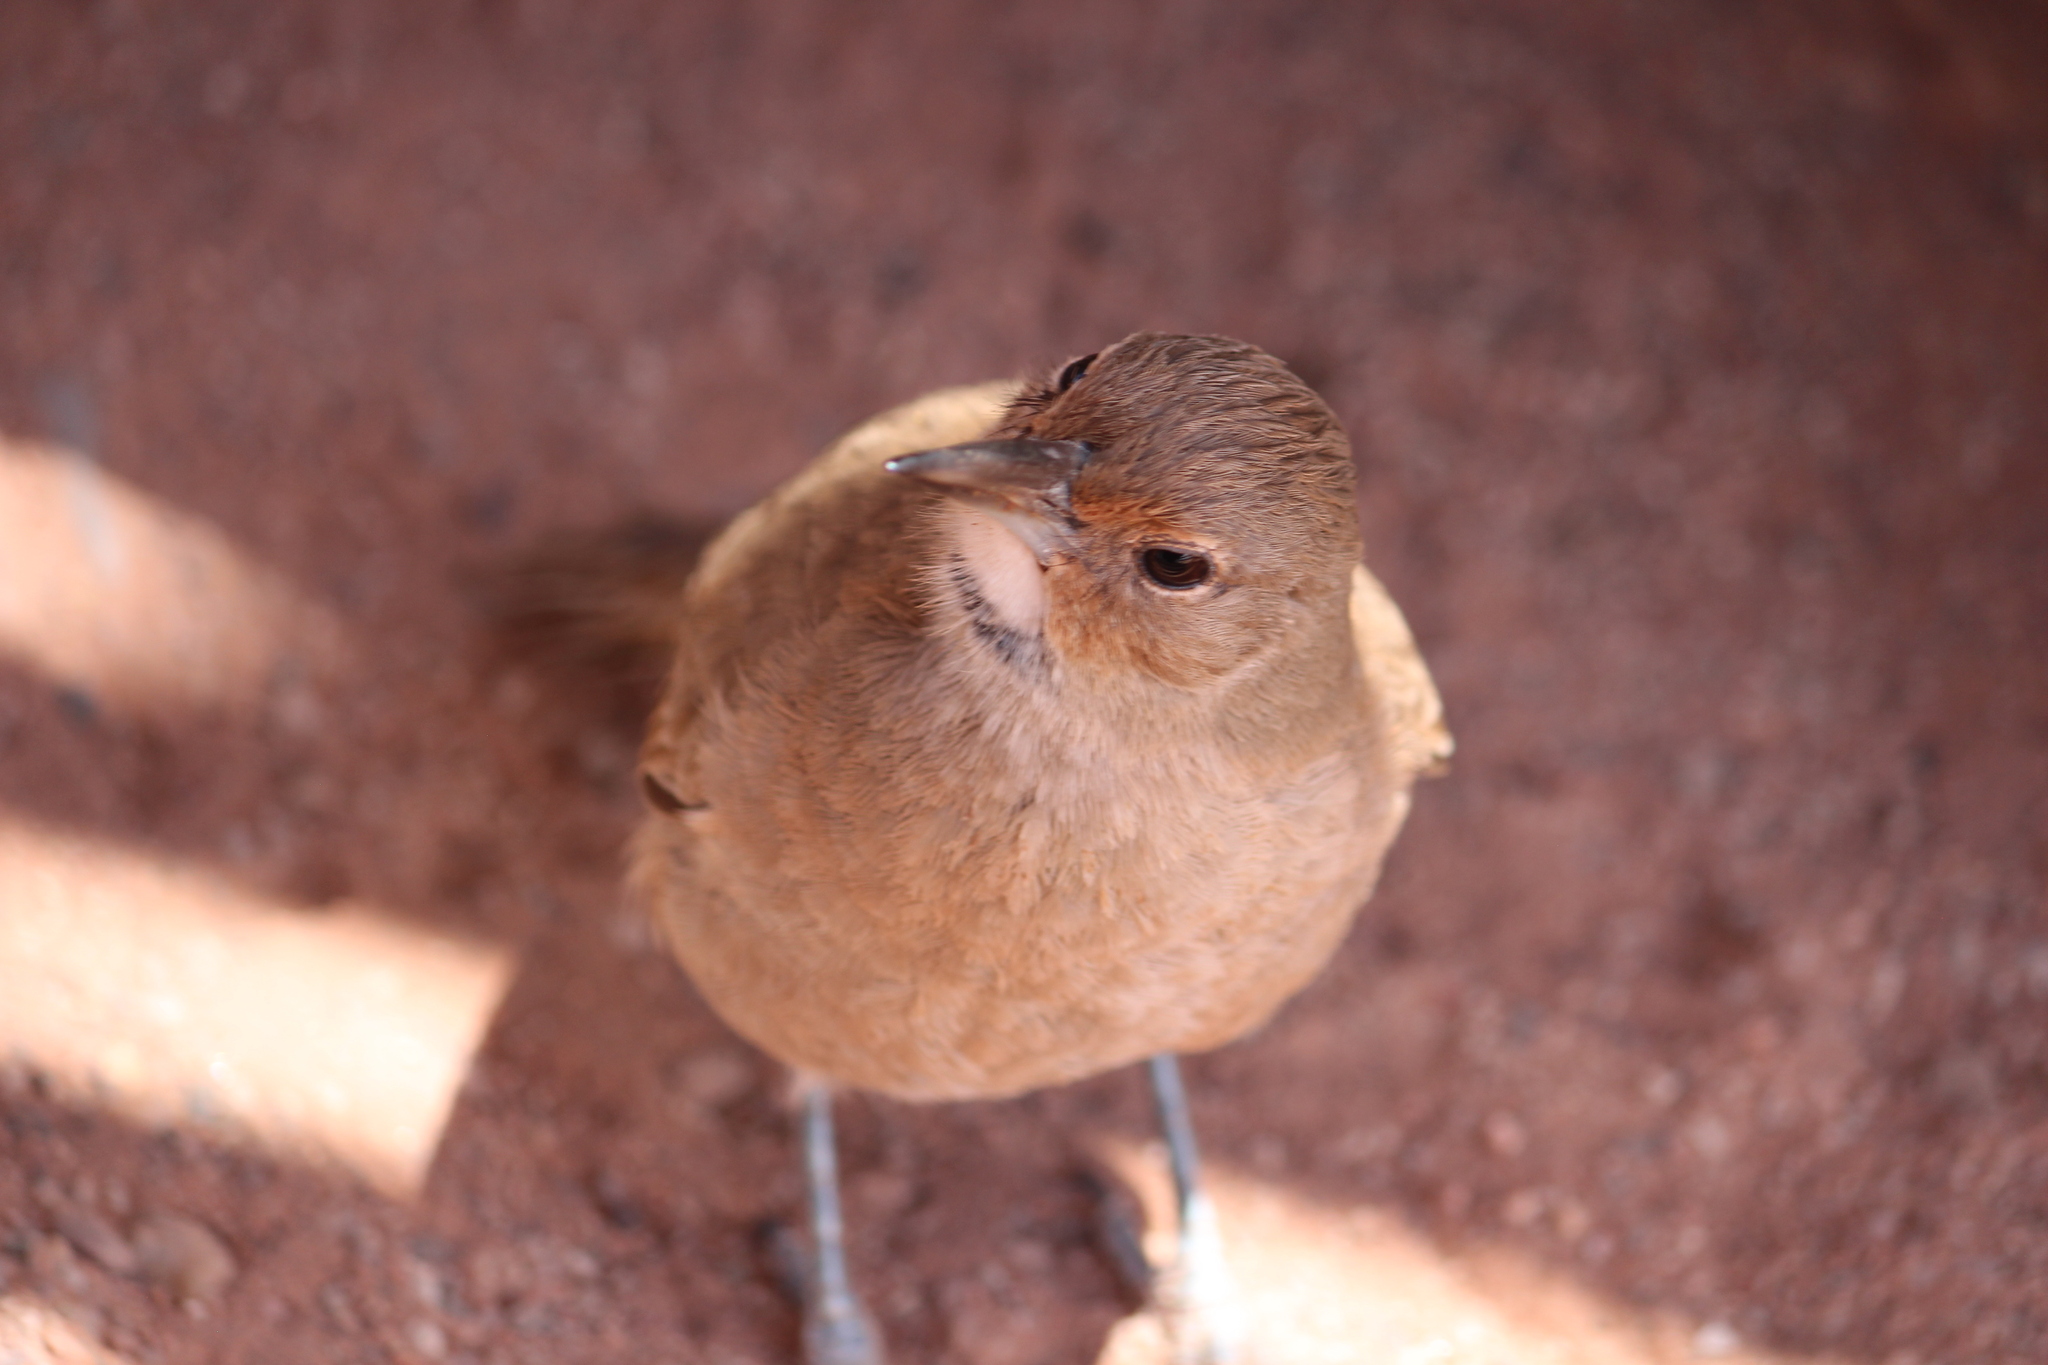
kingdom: Animalia
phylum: Chordata
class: Aves
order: Passeriformes
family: Furnariidae
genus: Furnarius
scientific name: Furnarius rufus
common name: Rufous hornero
